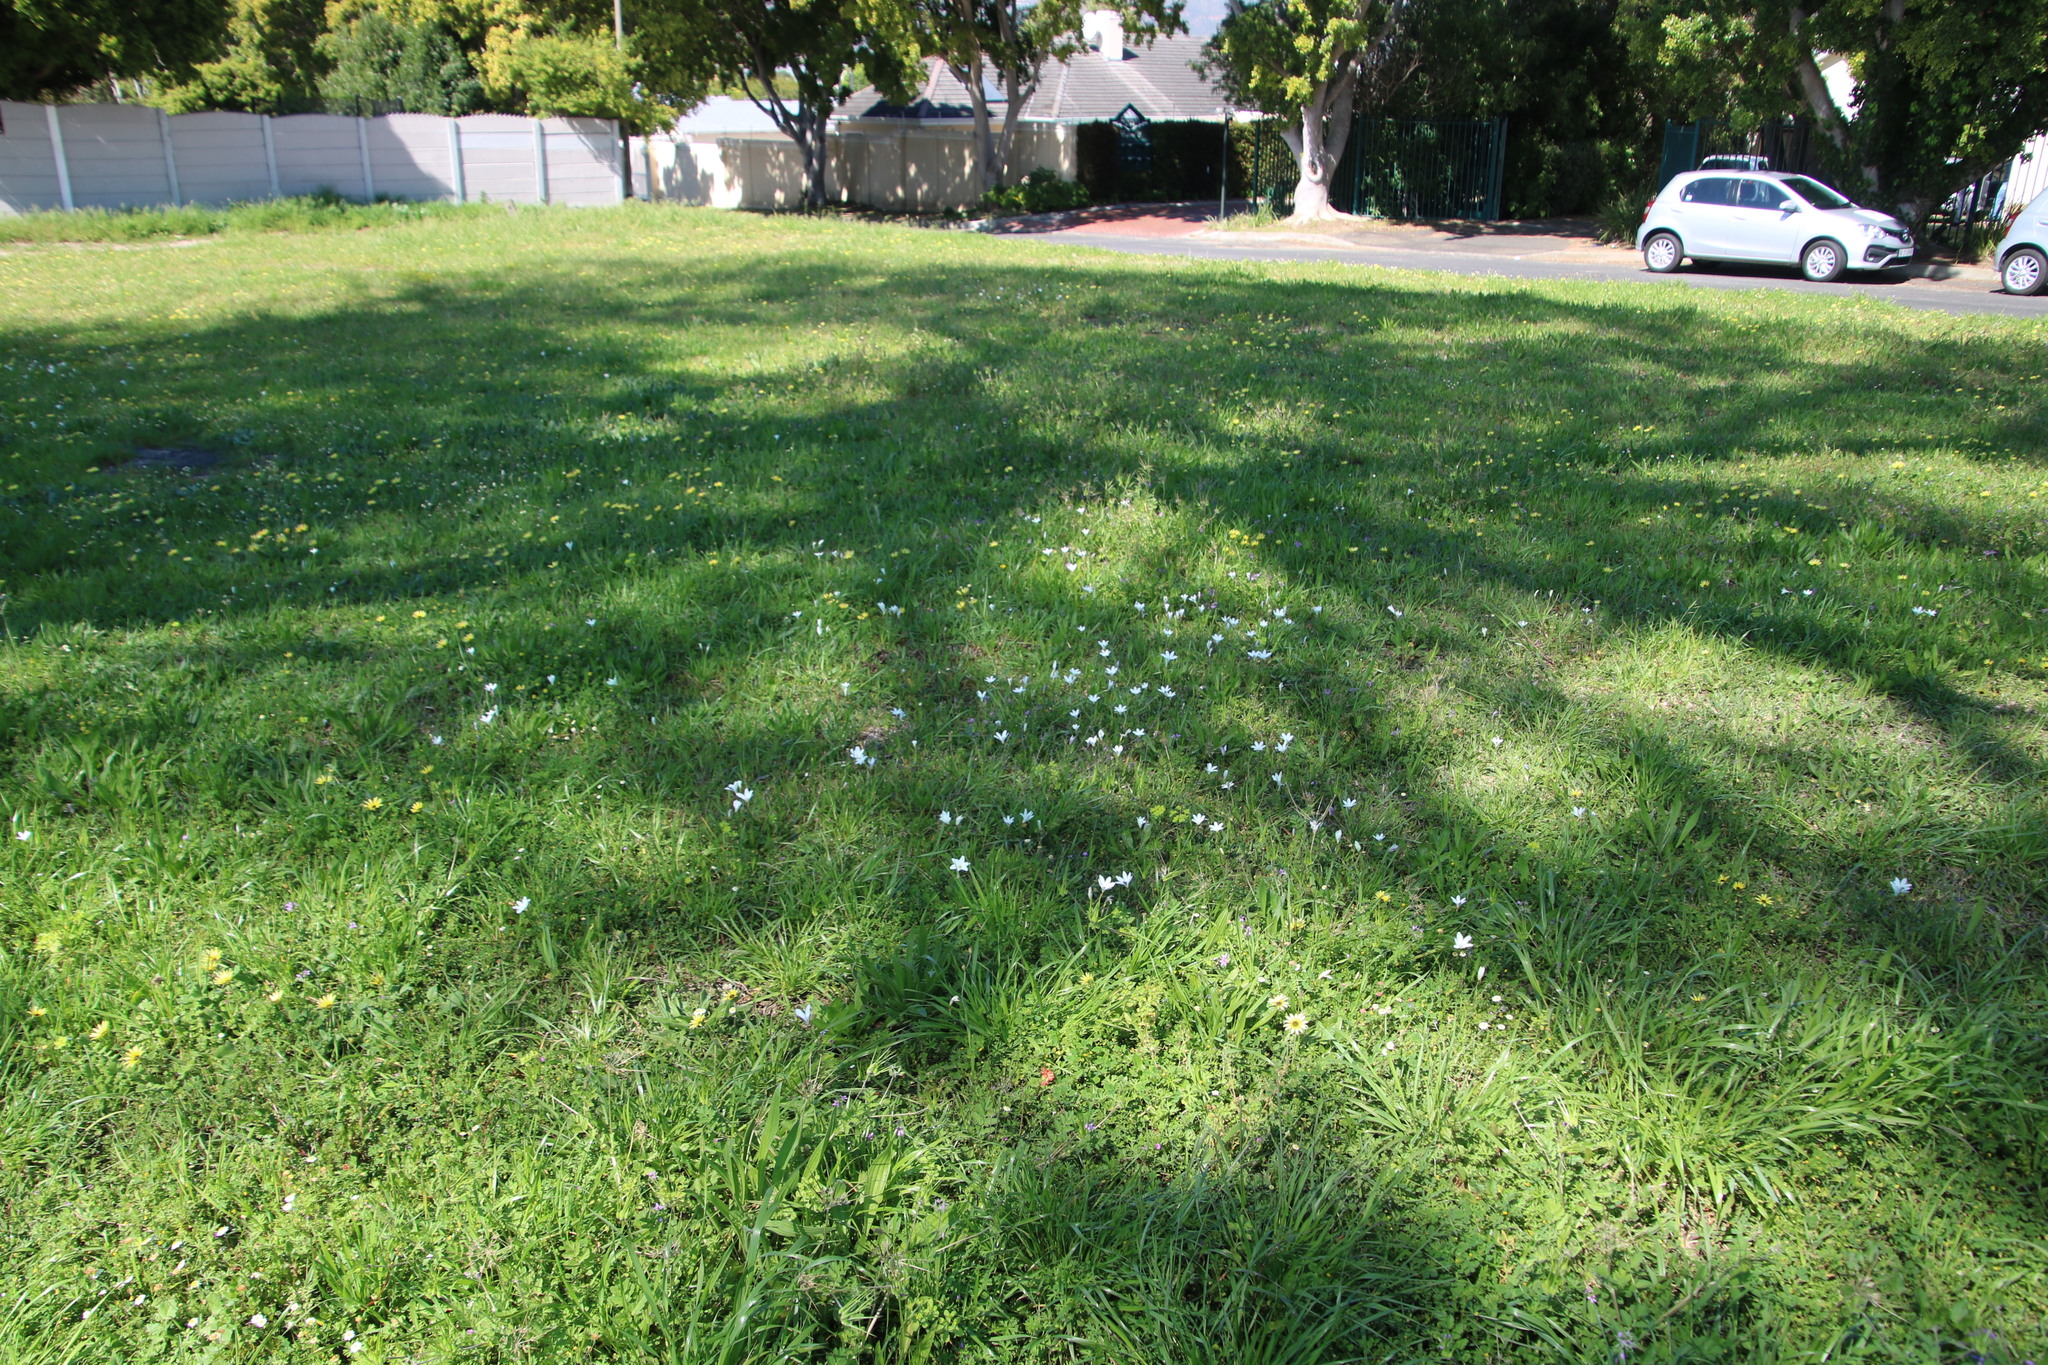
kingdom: Plantae
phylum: Tracheophyta
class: Liliopsida
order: Asparagales
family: Iridaceae
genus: Sparaxis
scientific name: Sparaxis bulbifera
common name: Harlequin-flower
